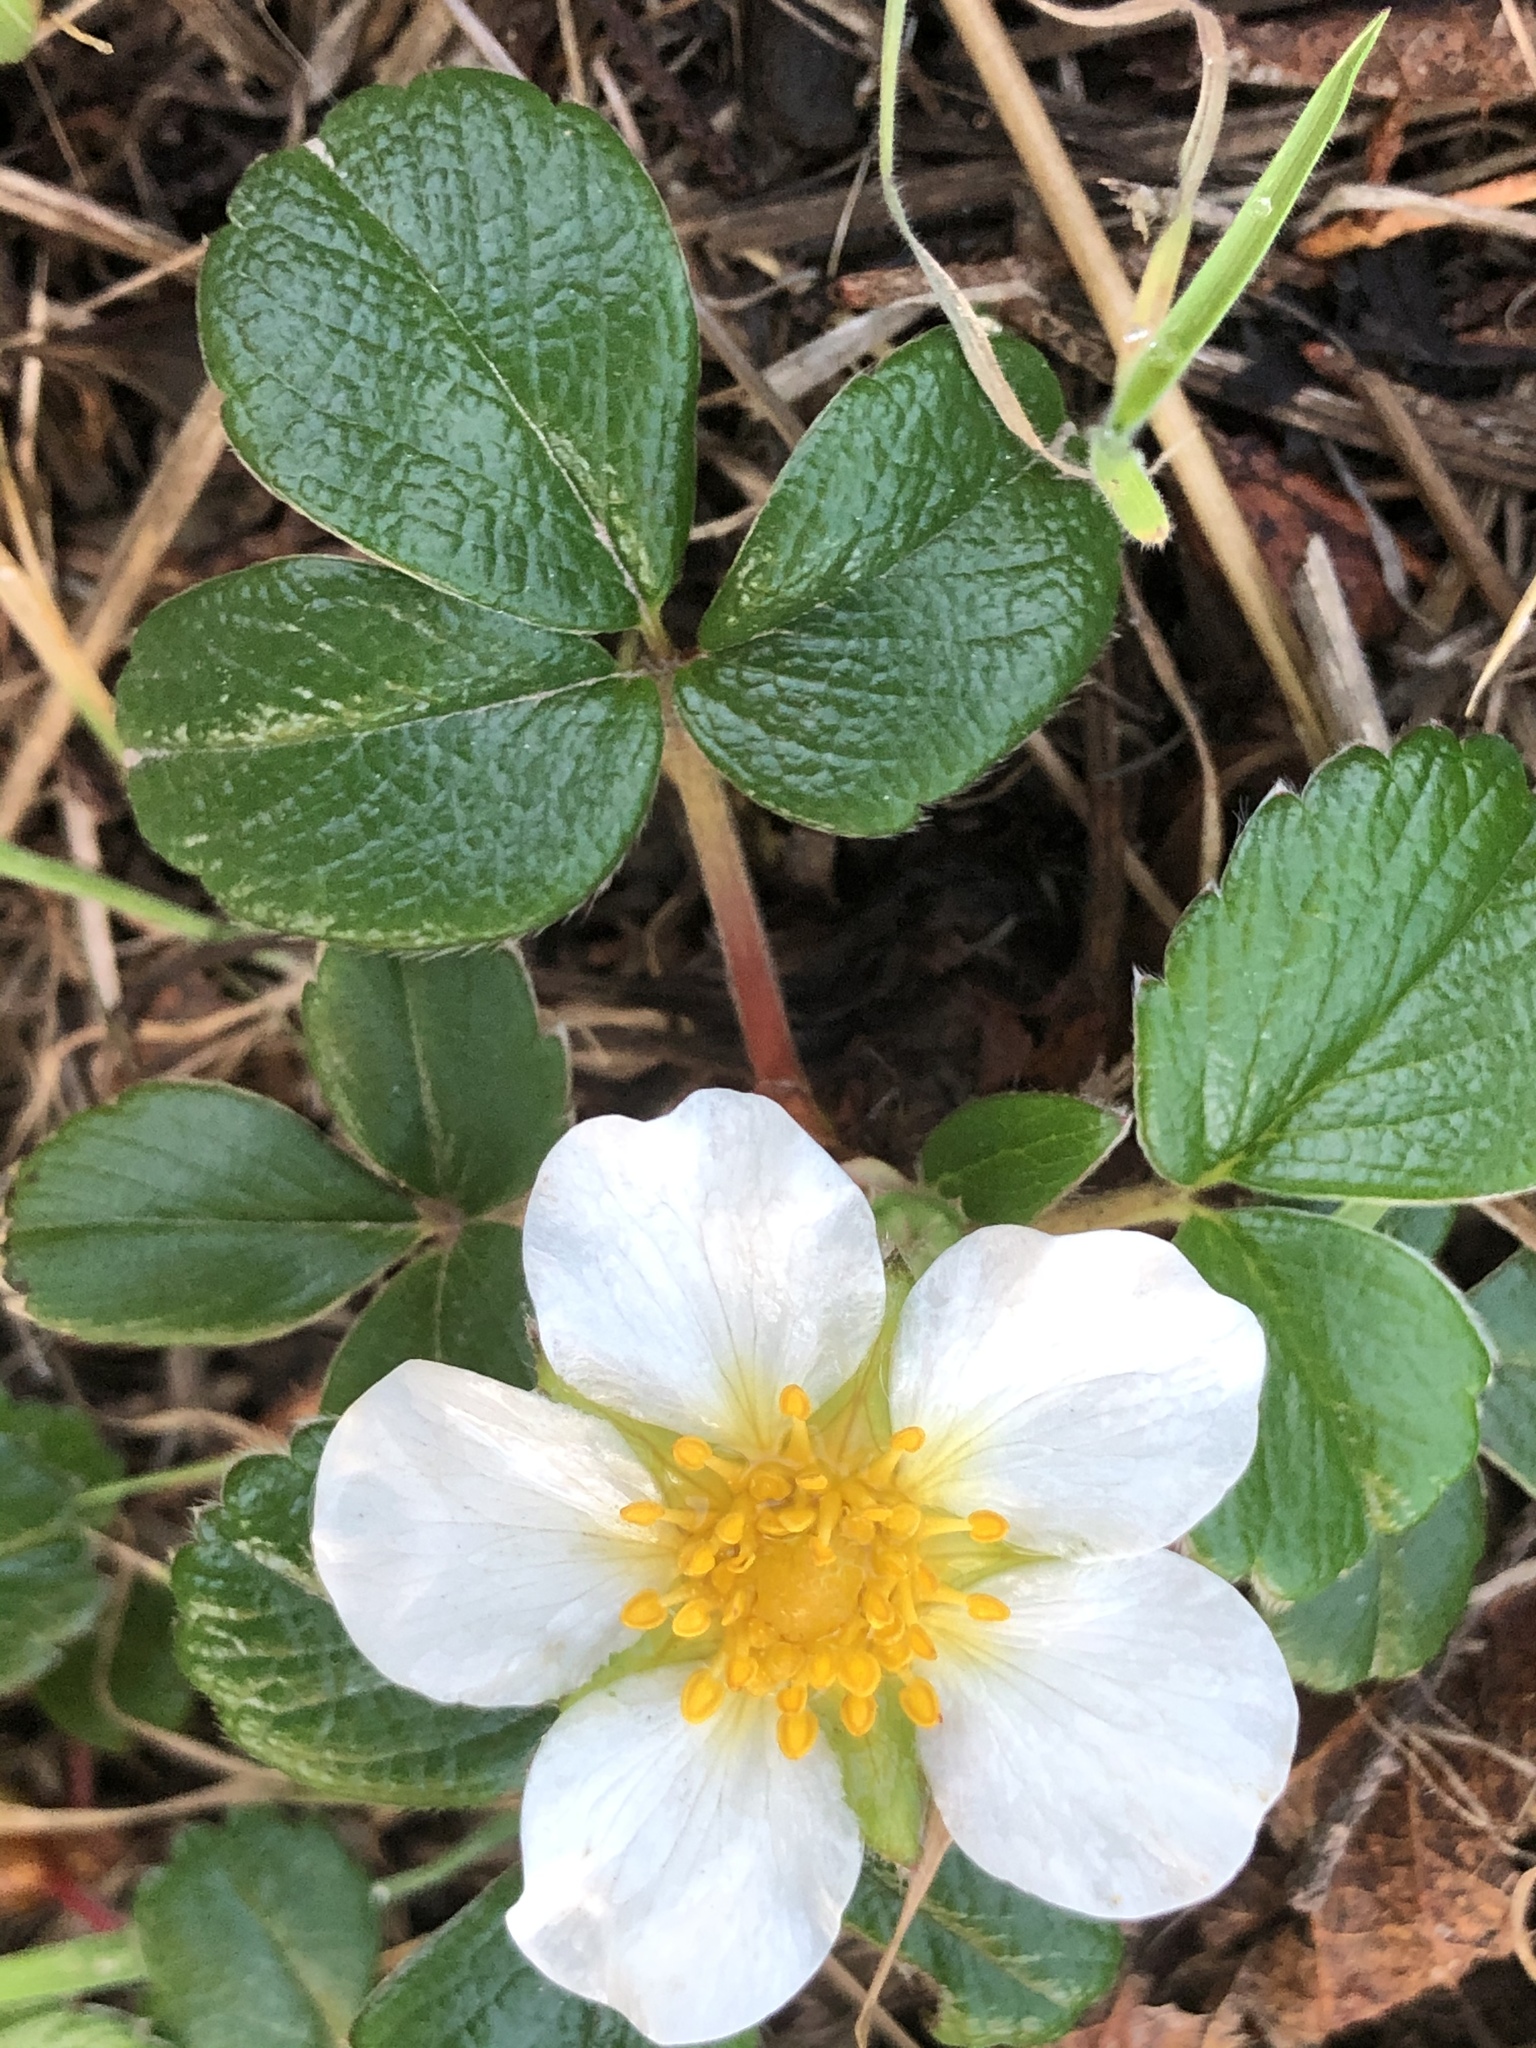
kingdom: Plantae
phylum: Tracheophyta
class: Magnoliopsida
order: Rosales
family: Rosaceae
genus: Fragaria
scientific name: Fragaria chiloensis
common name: Beach strawberry
